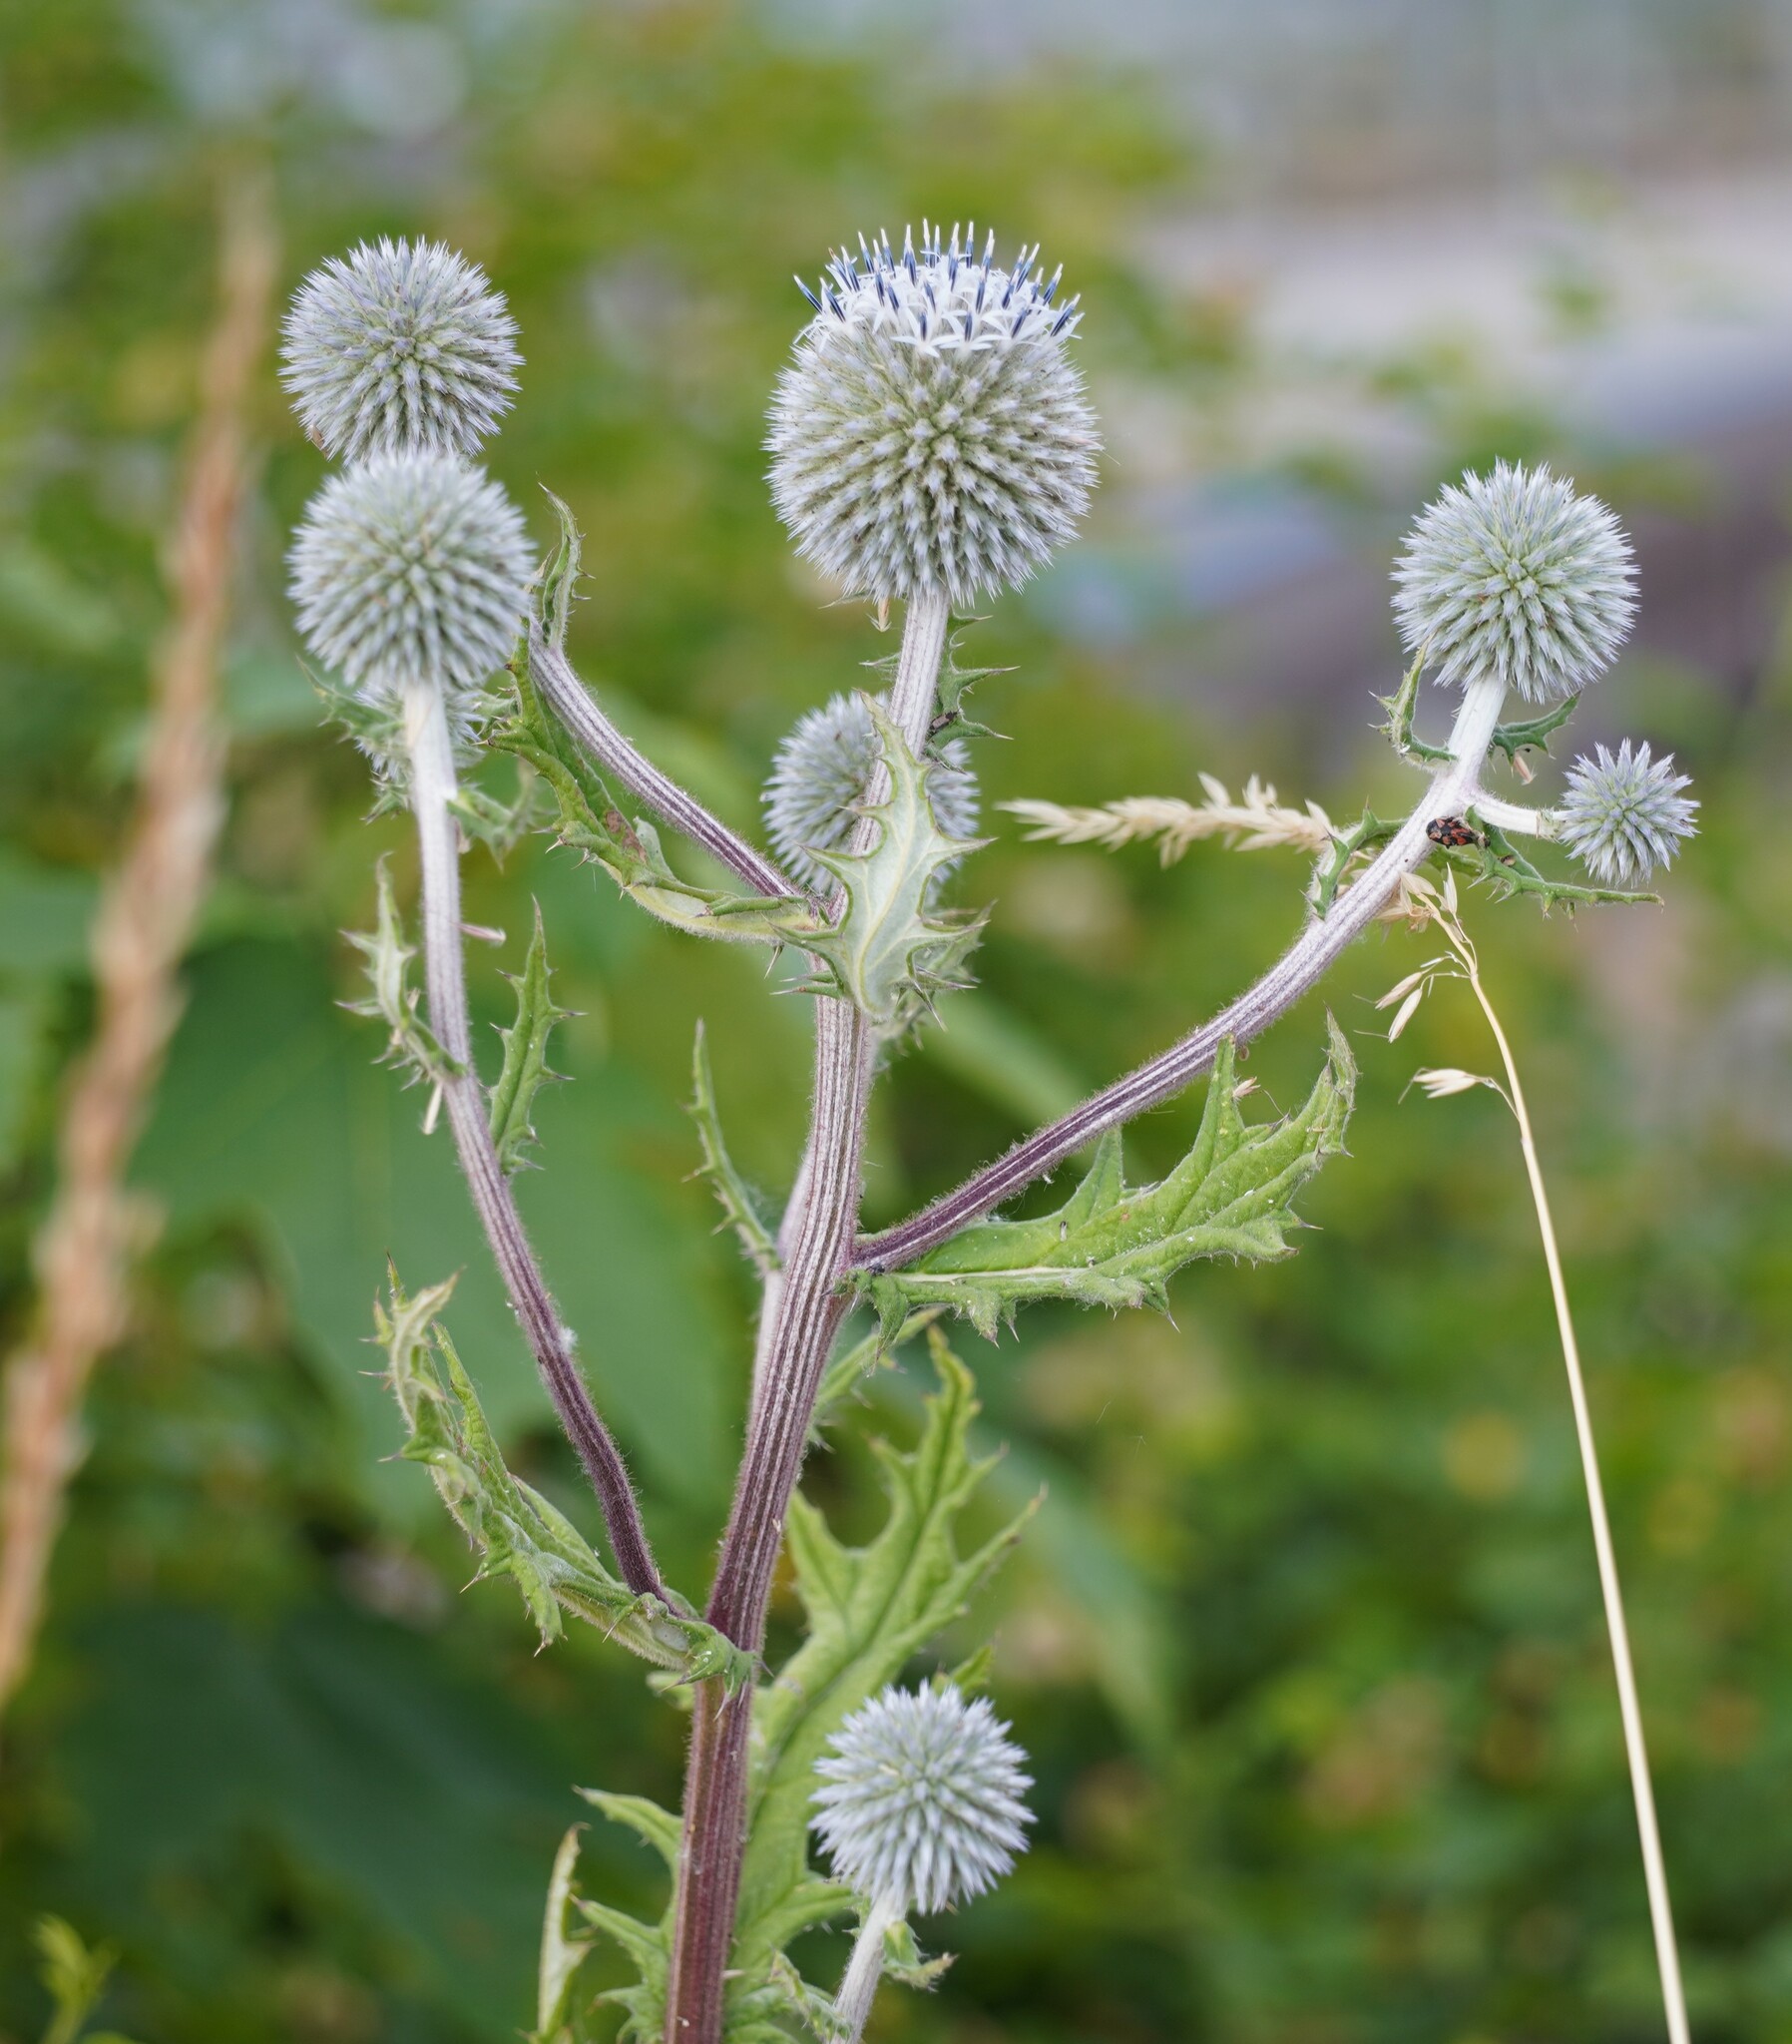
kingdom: Plantae
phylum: Tracheophyta
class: Magnoliopsida
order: Asterales
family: Asteraceae
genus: Echinops
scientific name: Echinops sphaerocephalus
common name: Glandular globe-thistle
